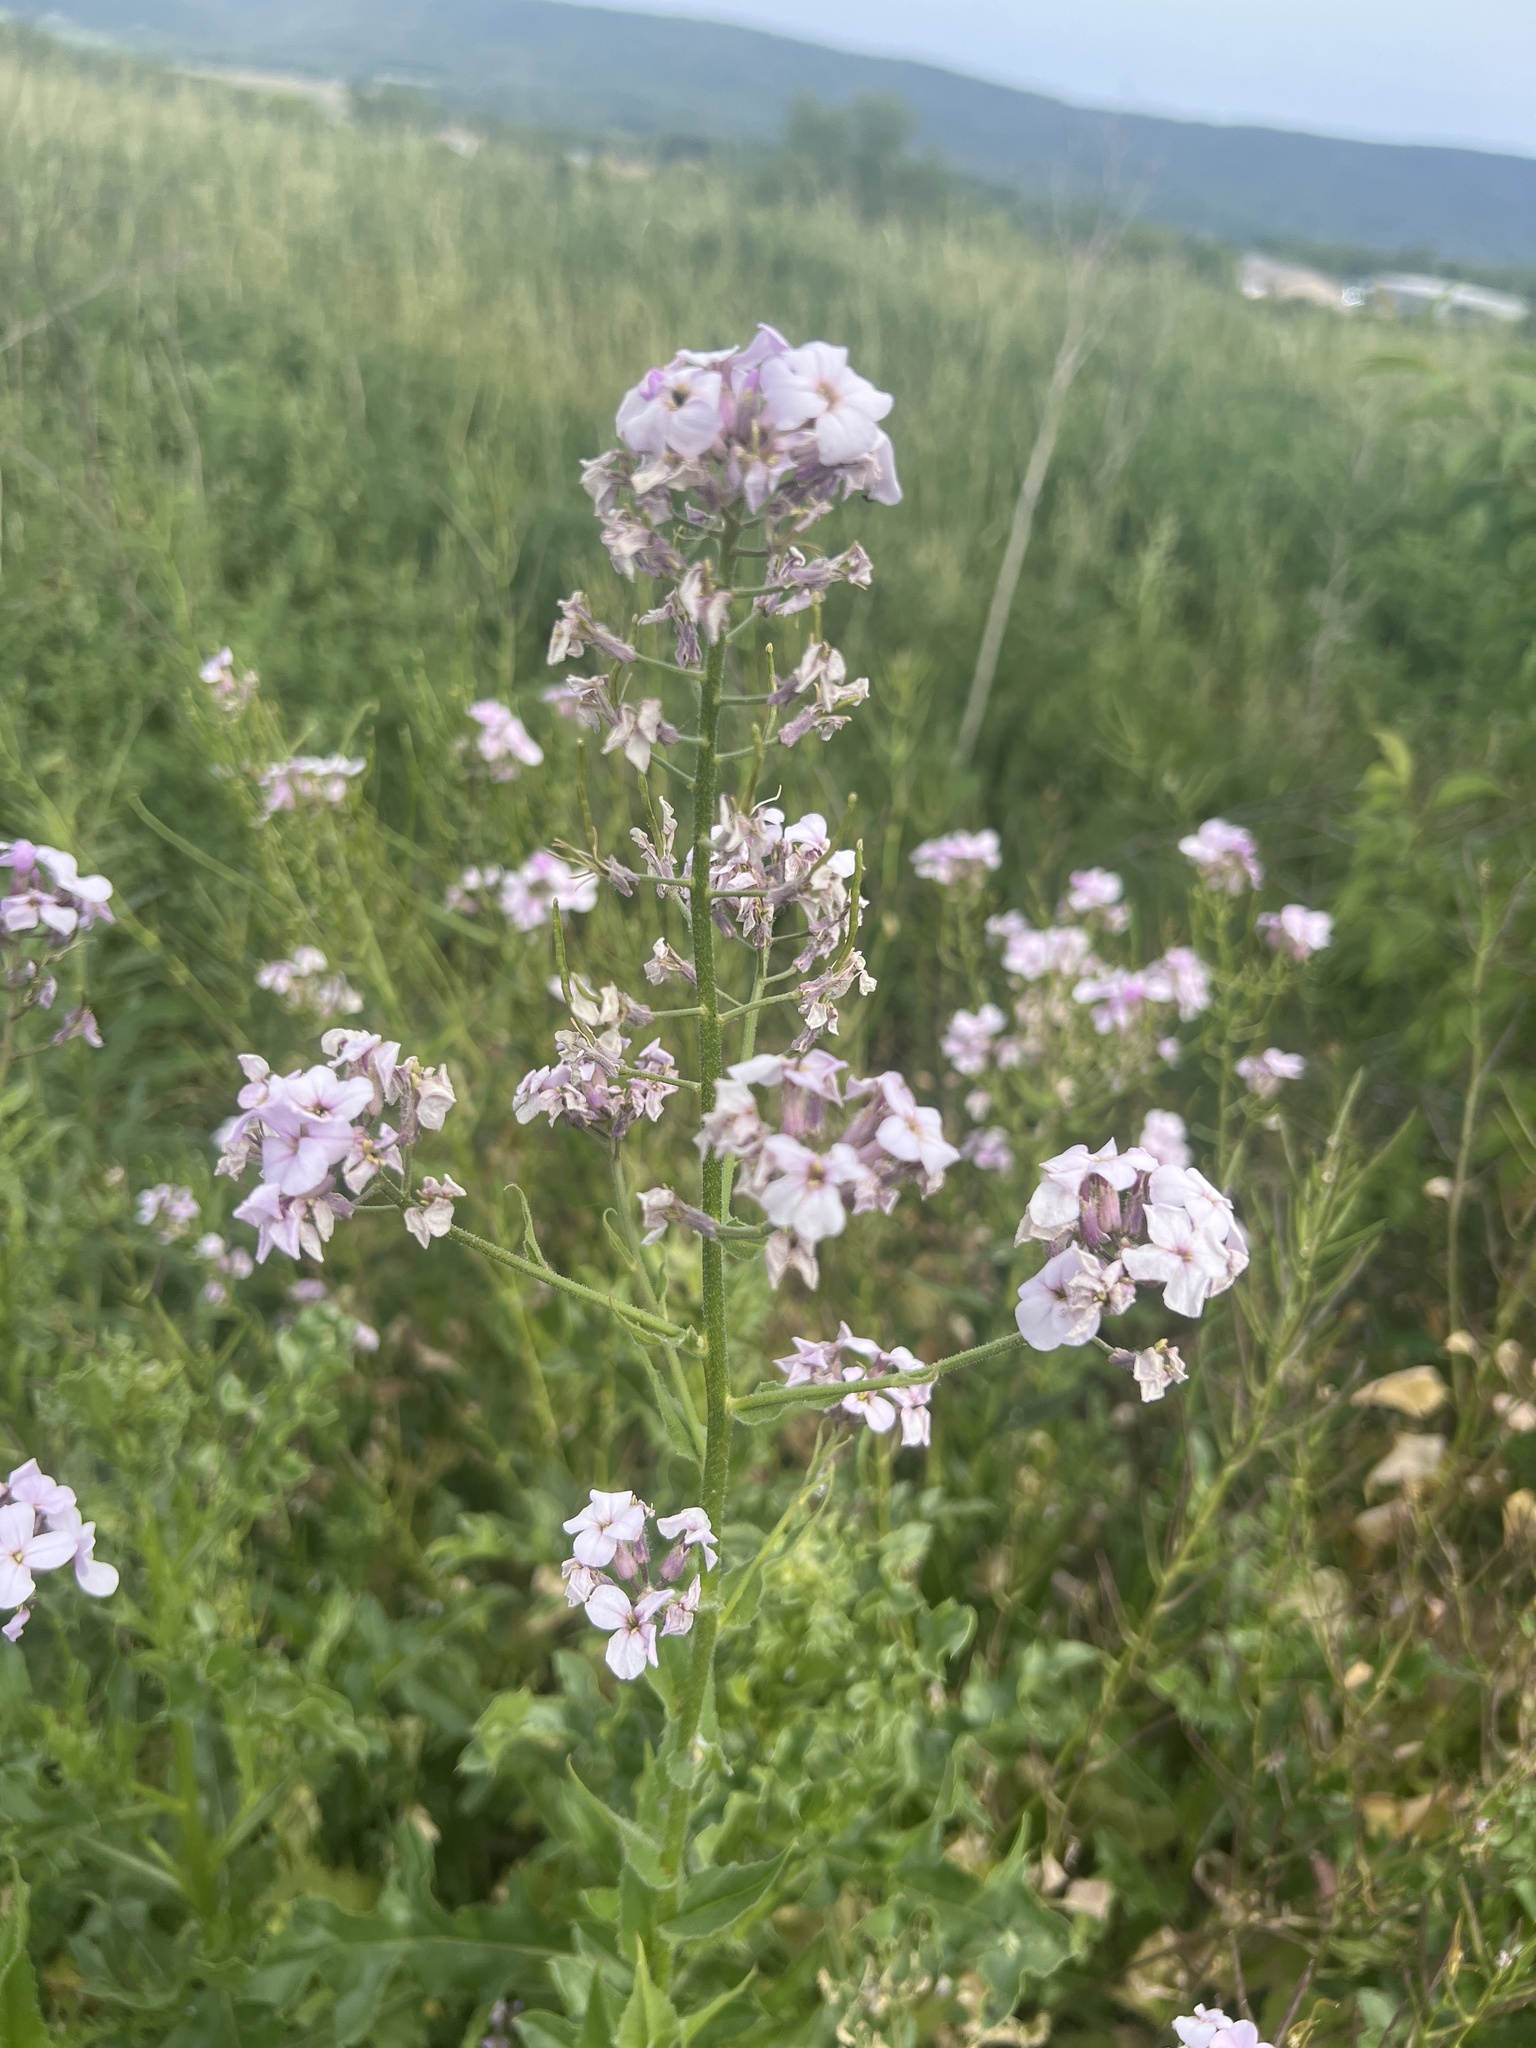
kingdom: Plantae
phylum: Tracheophyta
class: Magnoliopsida
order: Brassicales
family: Brassicaceae
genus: Hesperis
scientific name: Hesperis matronalis
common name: Dame's-violet
